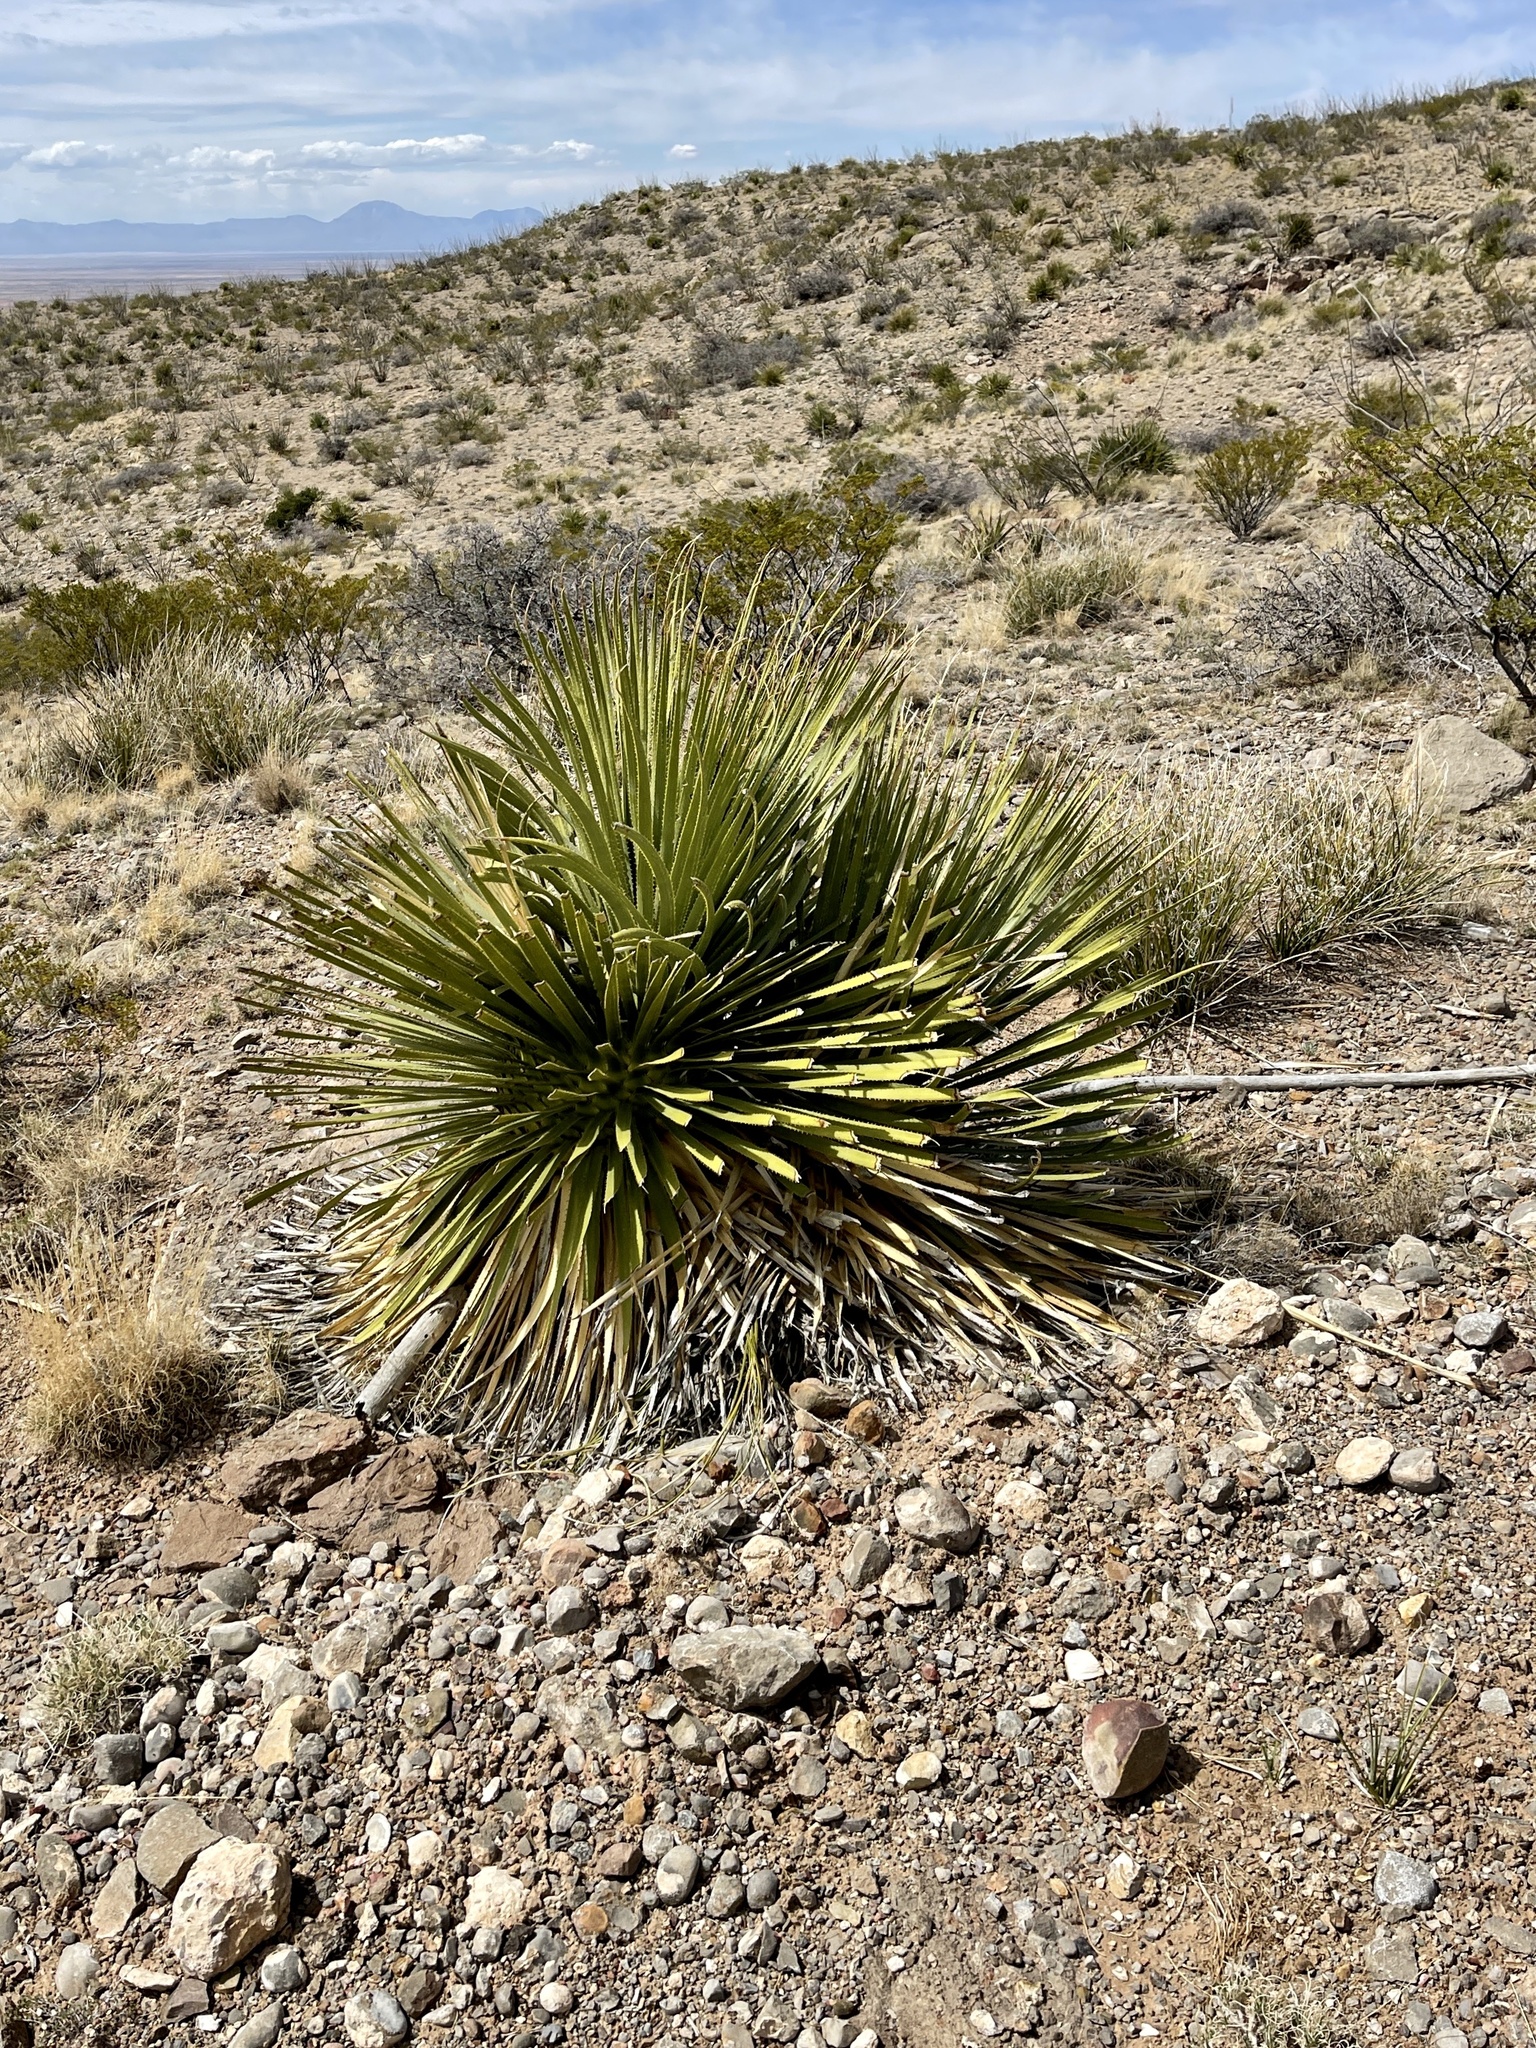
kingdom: Plantae
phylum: Tracheophyta
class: Liliopsida
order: Asparagales
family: Asparagaceae
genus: Dasylirion
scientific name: Dasylirion wheeleri
